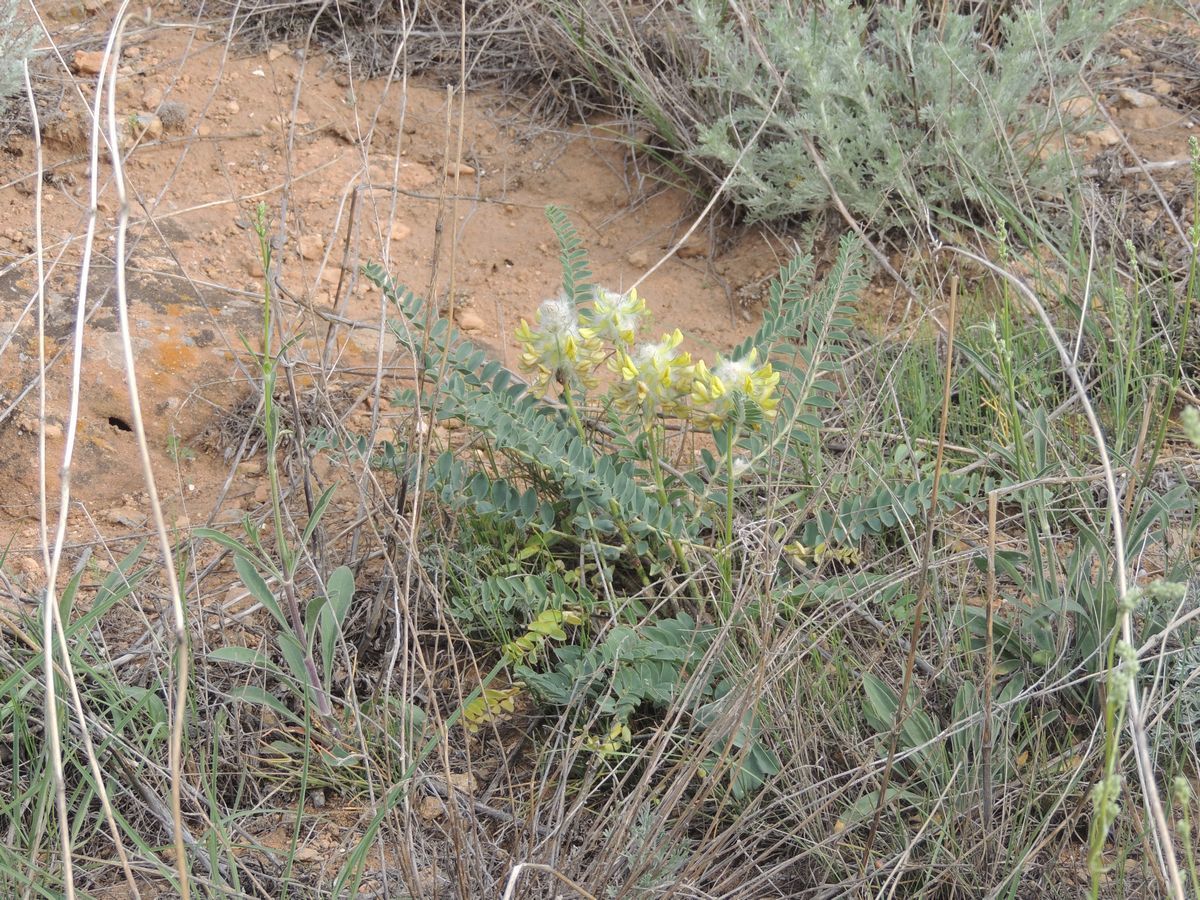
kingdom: Plantae
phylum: Tracheophyta
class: Magnoliopsida
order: Fabales
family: Fabaceae
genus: Astragalus
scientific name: Astragalus vulpinus
